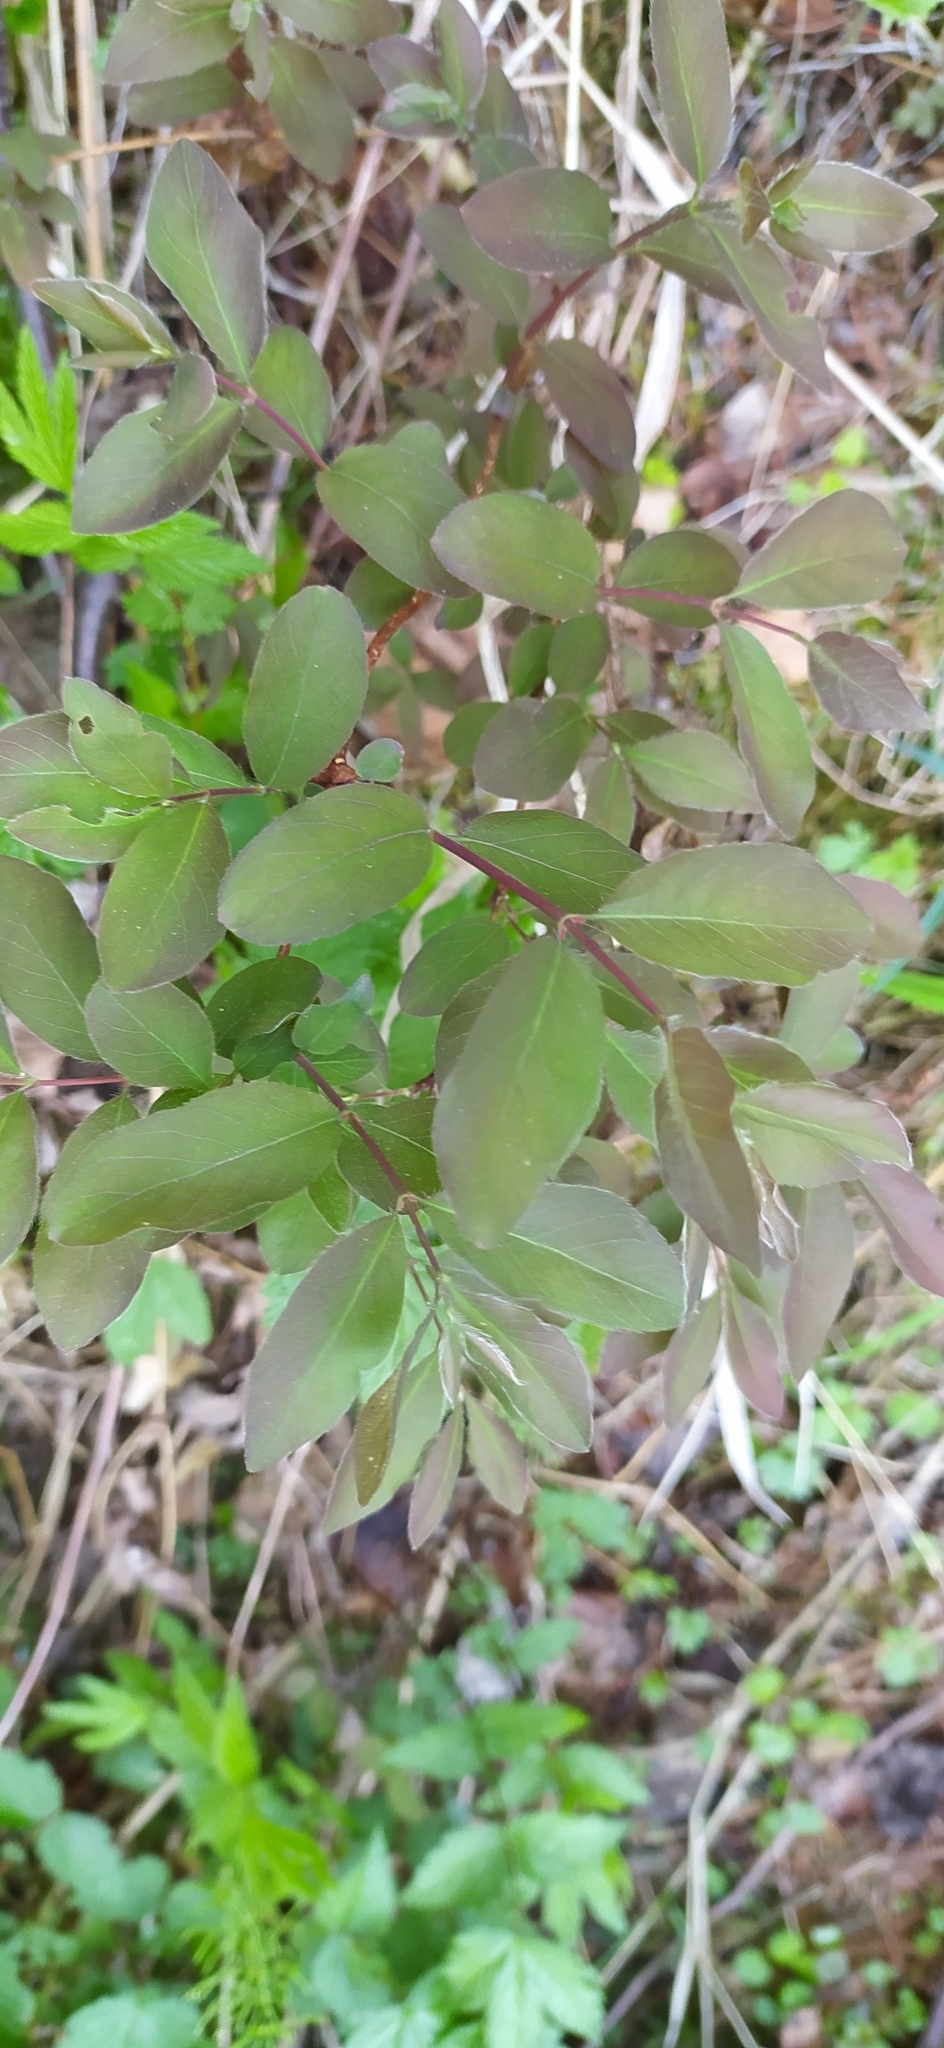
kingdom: Plantae
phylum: Tracheophyta
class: Magnoliopsida
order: Dipsacales
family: Caprifoliaceae
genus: Lonicera
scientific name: Lonicera caerulea
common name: Blue honeysuckle
